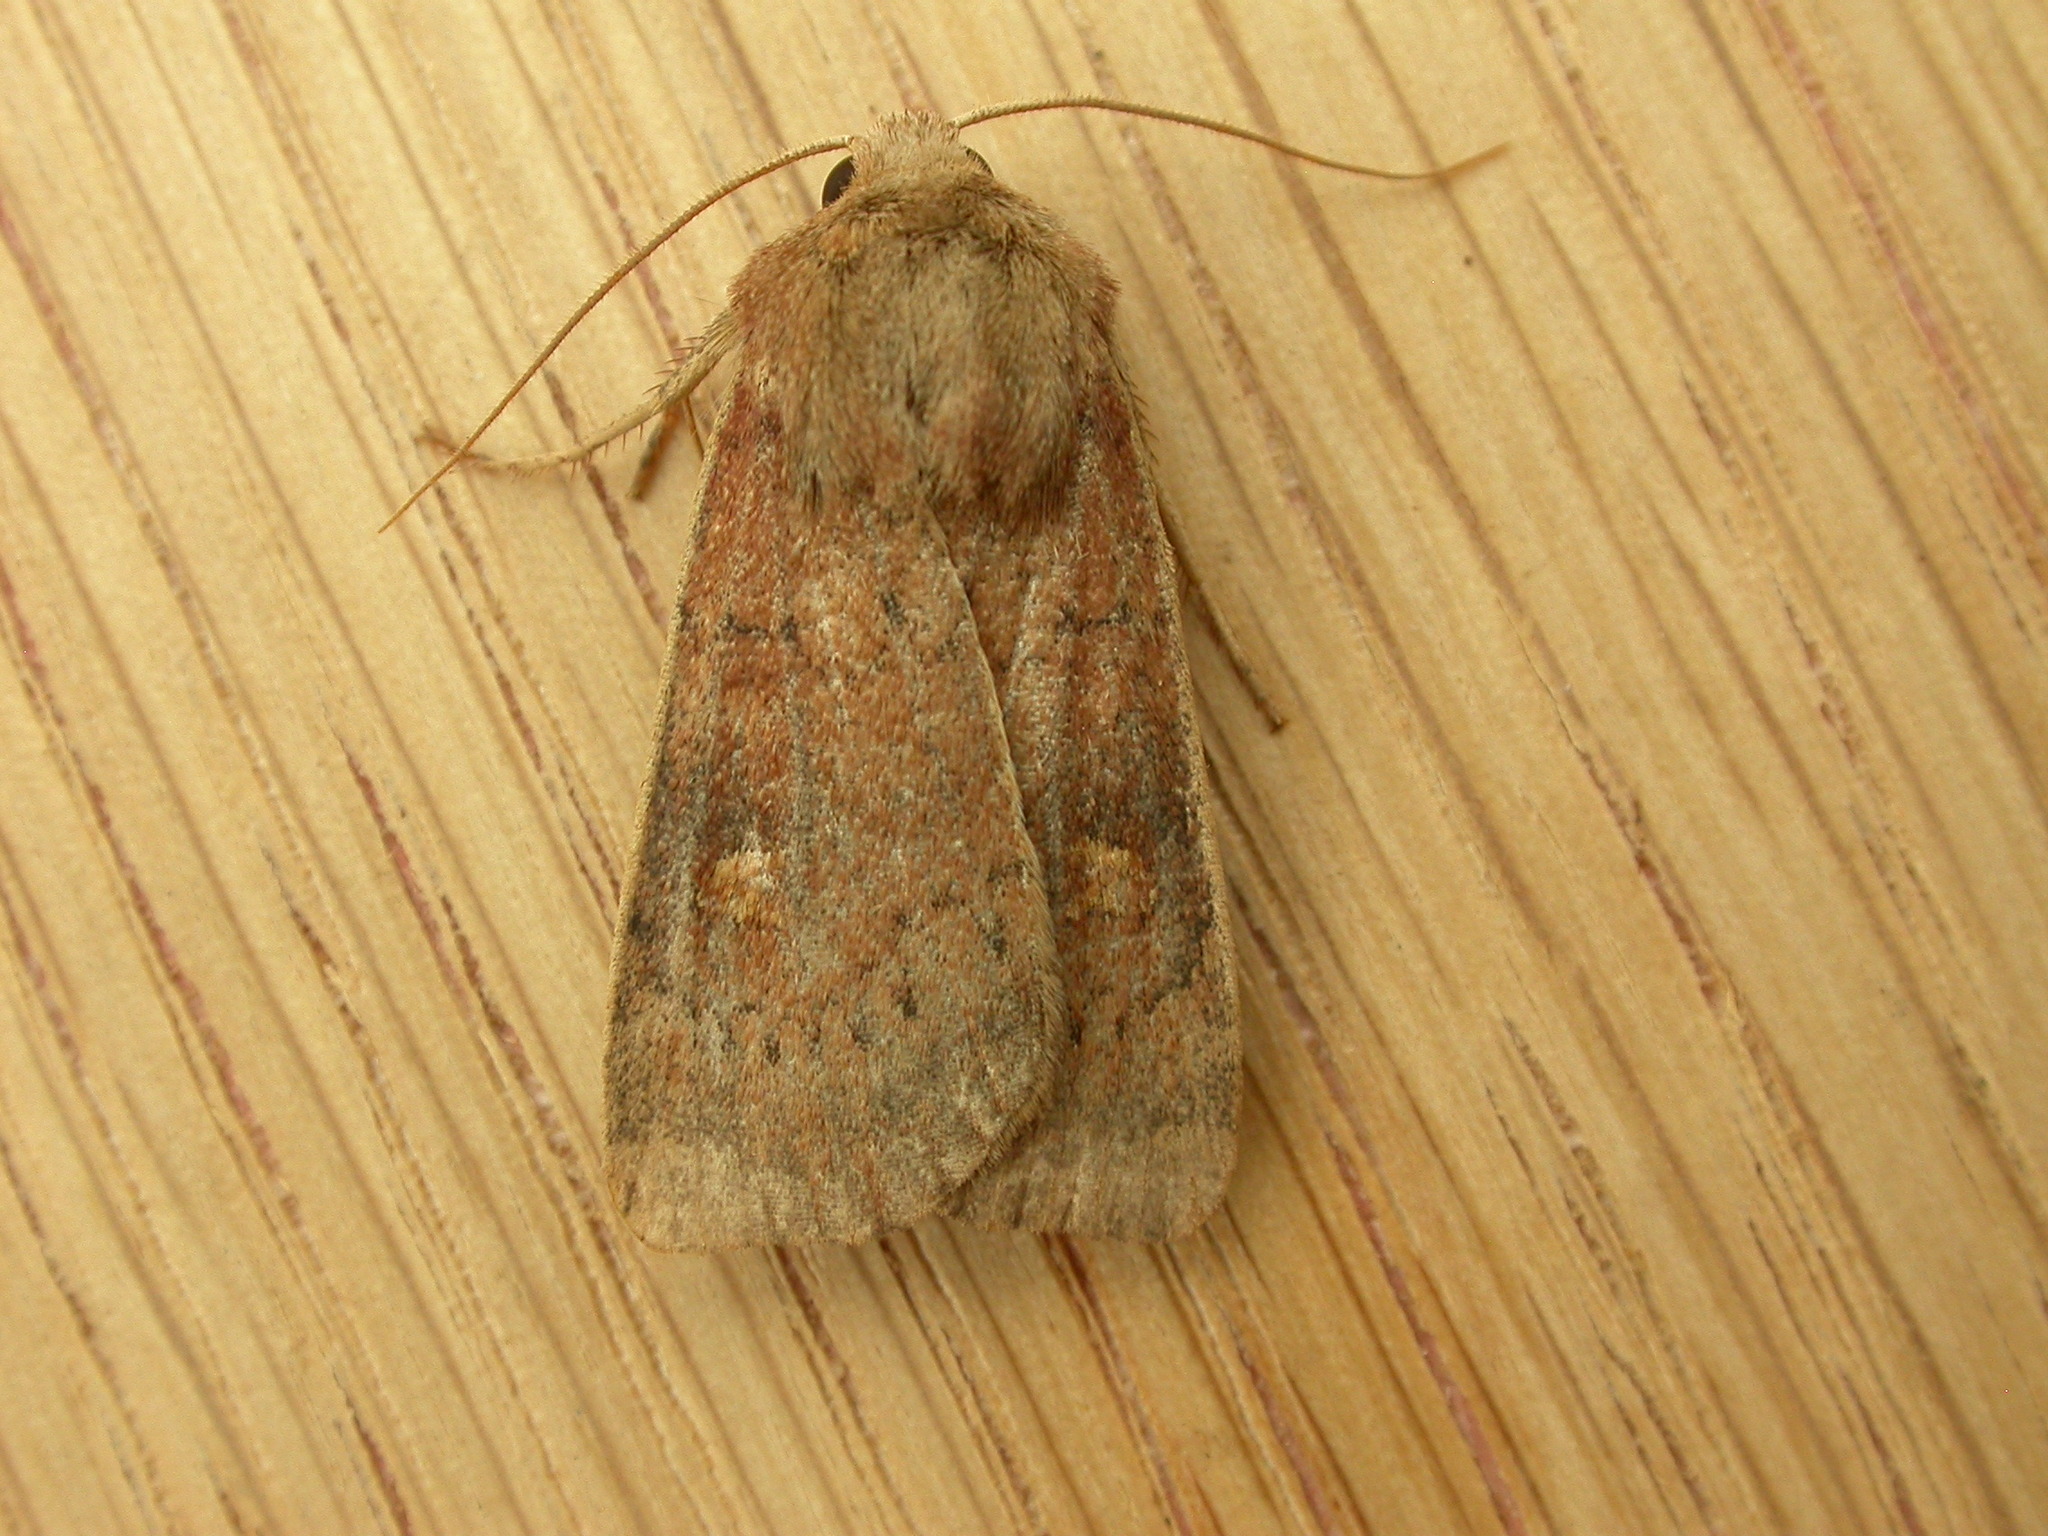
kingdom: Animalia
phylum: Arthropoda
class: Insecta
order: Lepidoptera
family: Noctuidae
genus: Xestia
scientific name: Xestia xanthographa
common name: Square-spot rustic
